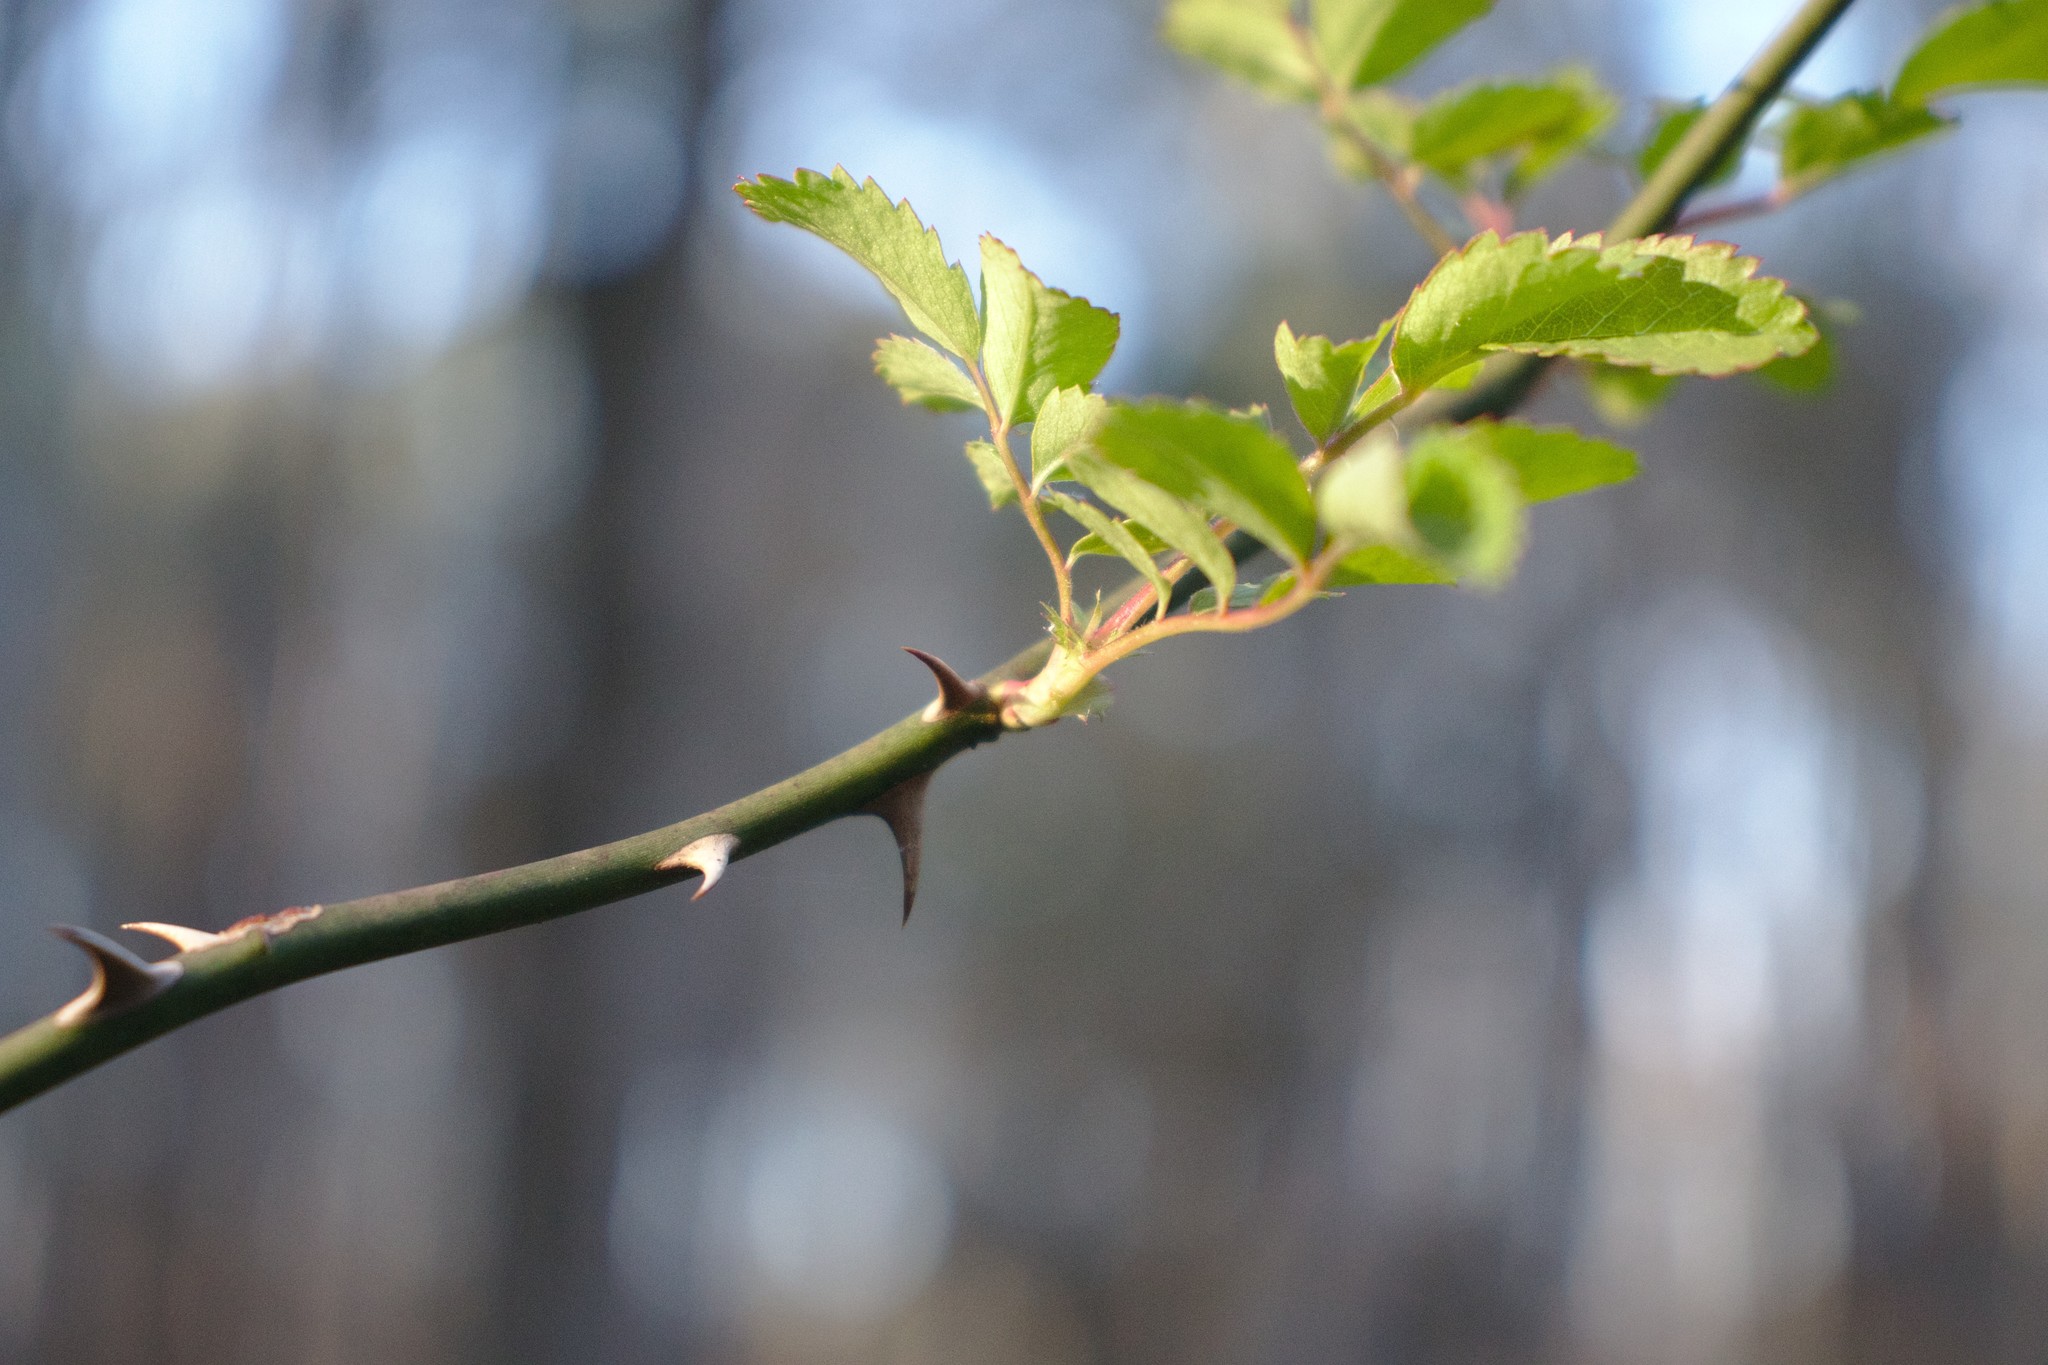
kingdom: Plantae
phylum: Tracheophyta
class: Magnoliopsida
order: Rosales
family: Rosaceae
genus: Rosa
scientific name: Rosa multiflora
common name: Multiflora rose
